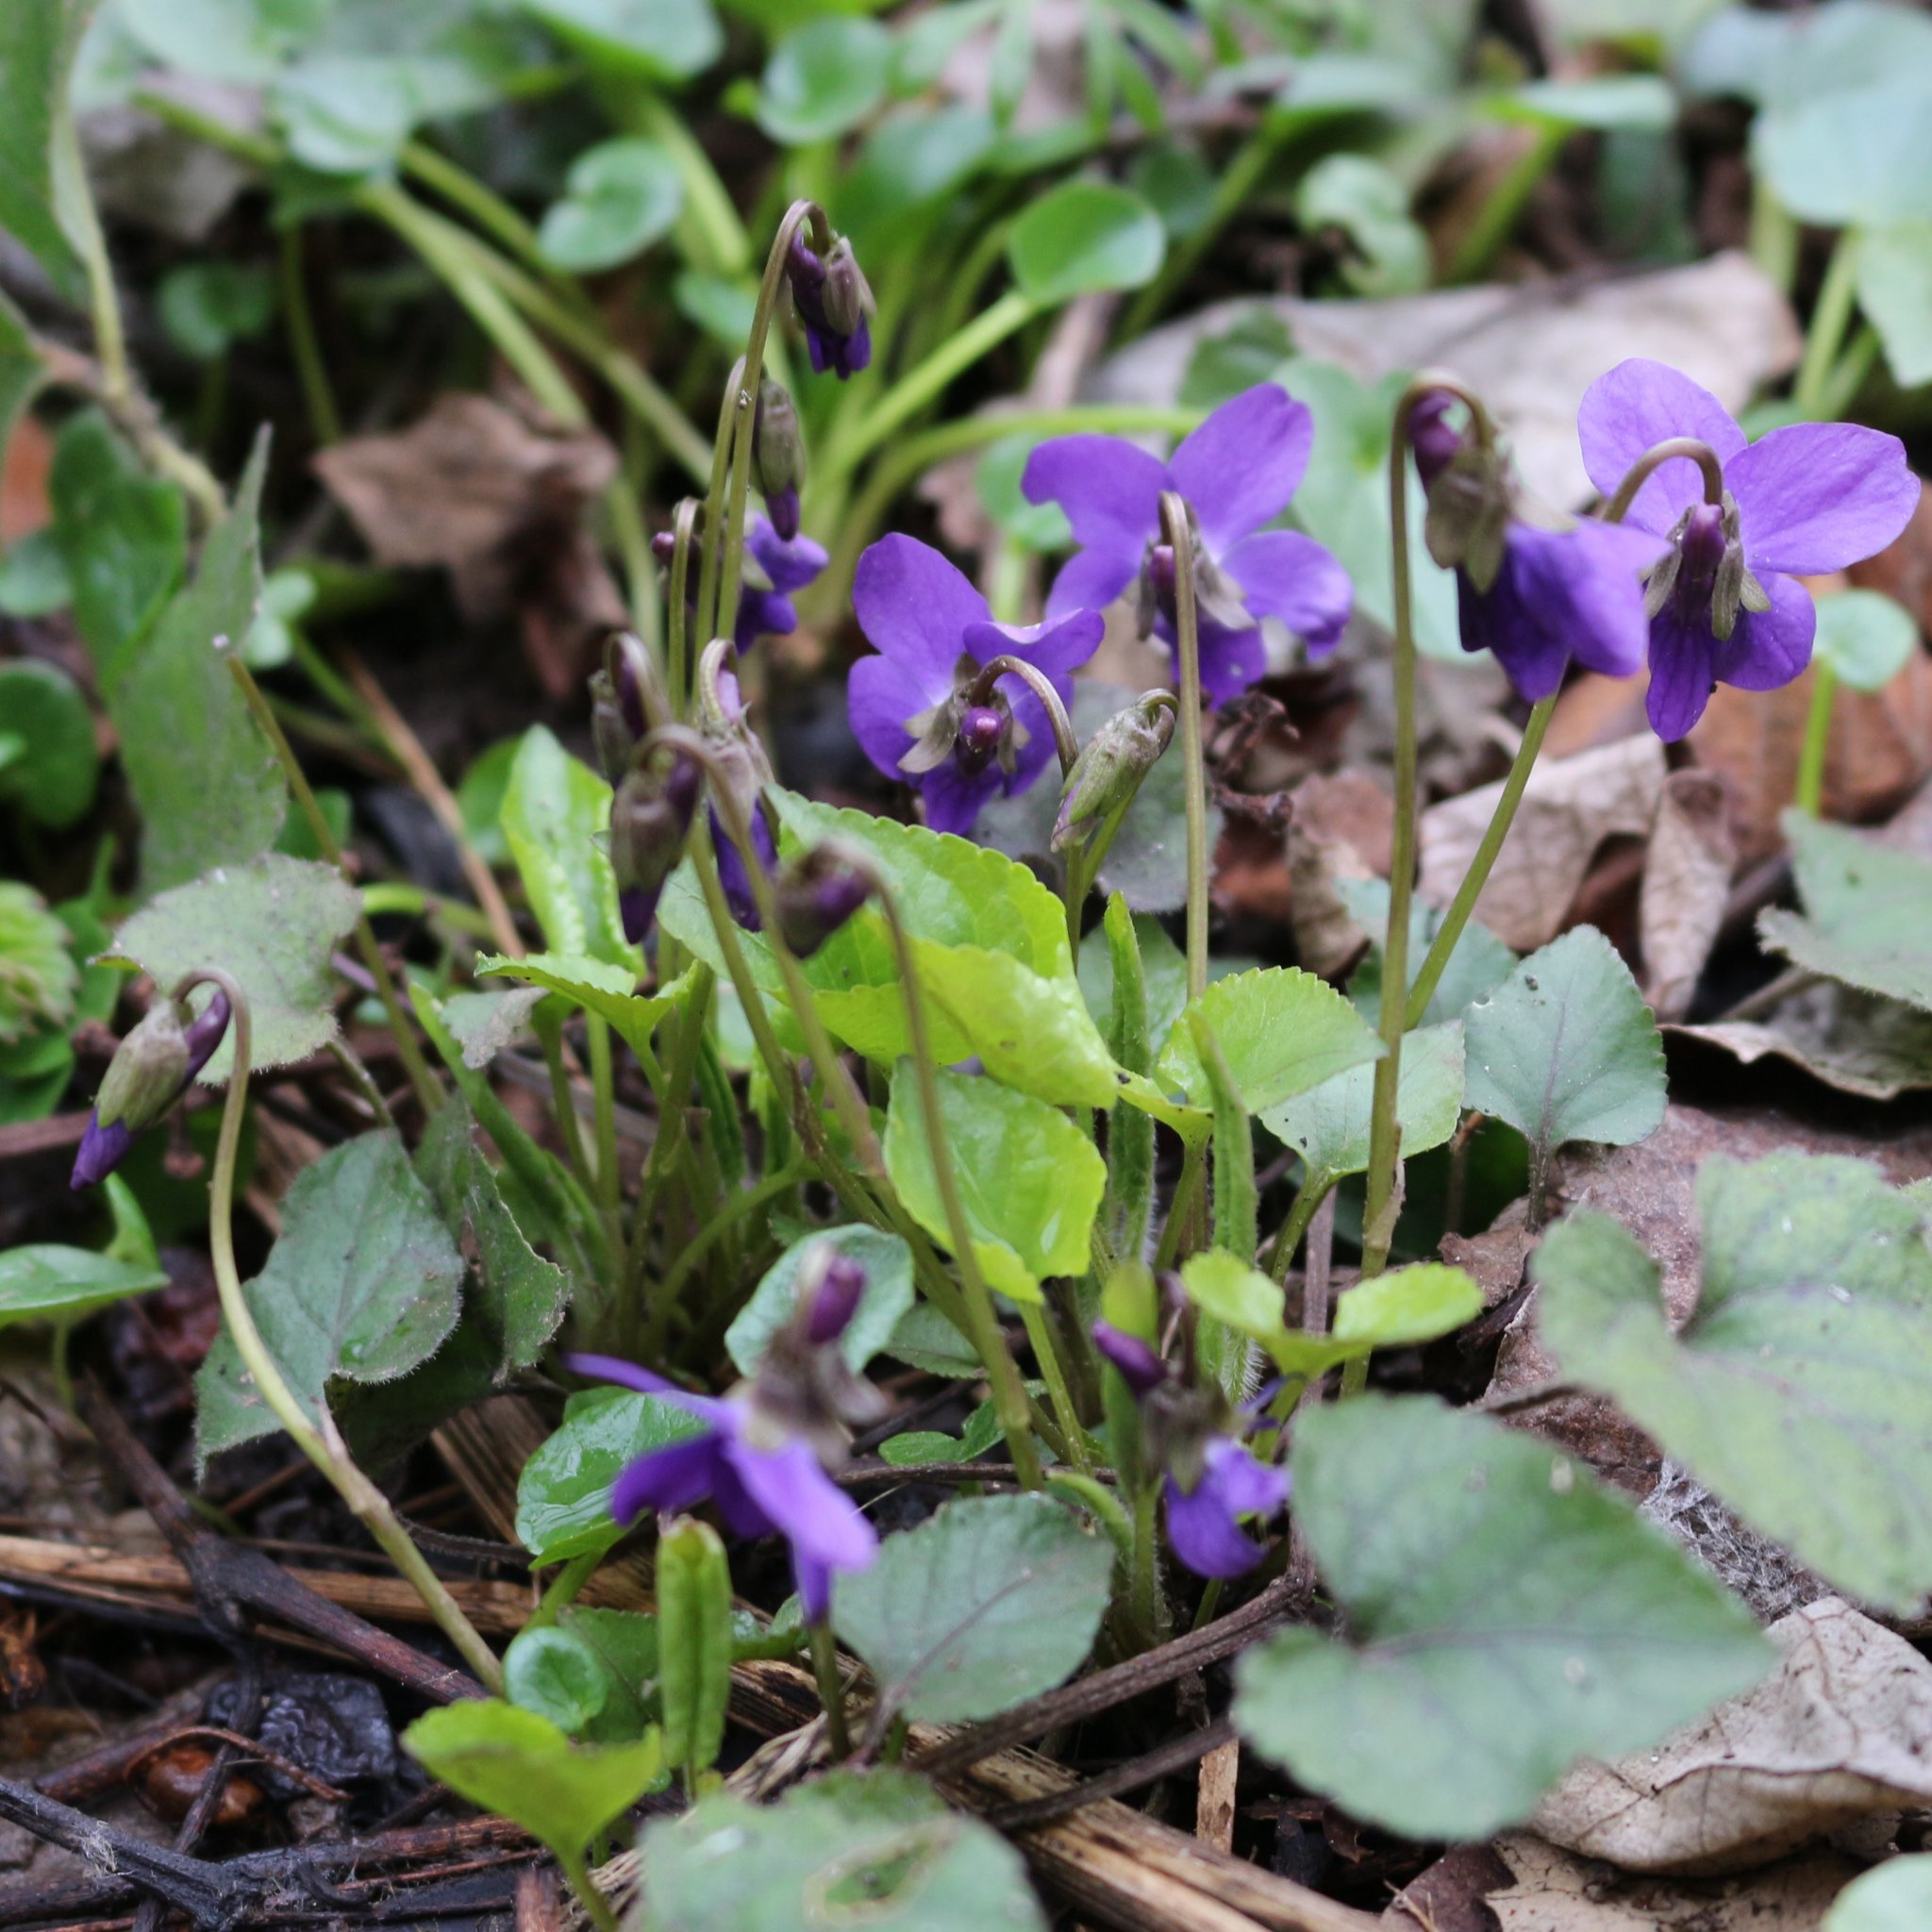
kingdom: Plantae
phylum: Tracheophyta
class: Magnoliopsida
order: Malpighiales
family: Violaceae
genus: Viola
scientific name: Viola alba
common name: White violet
